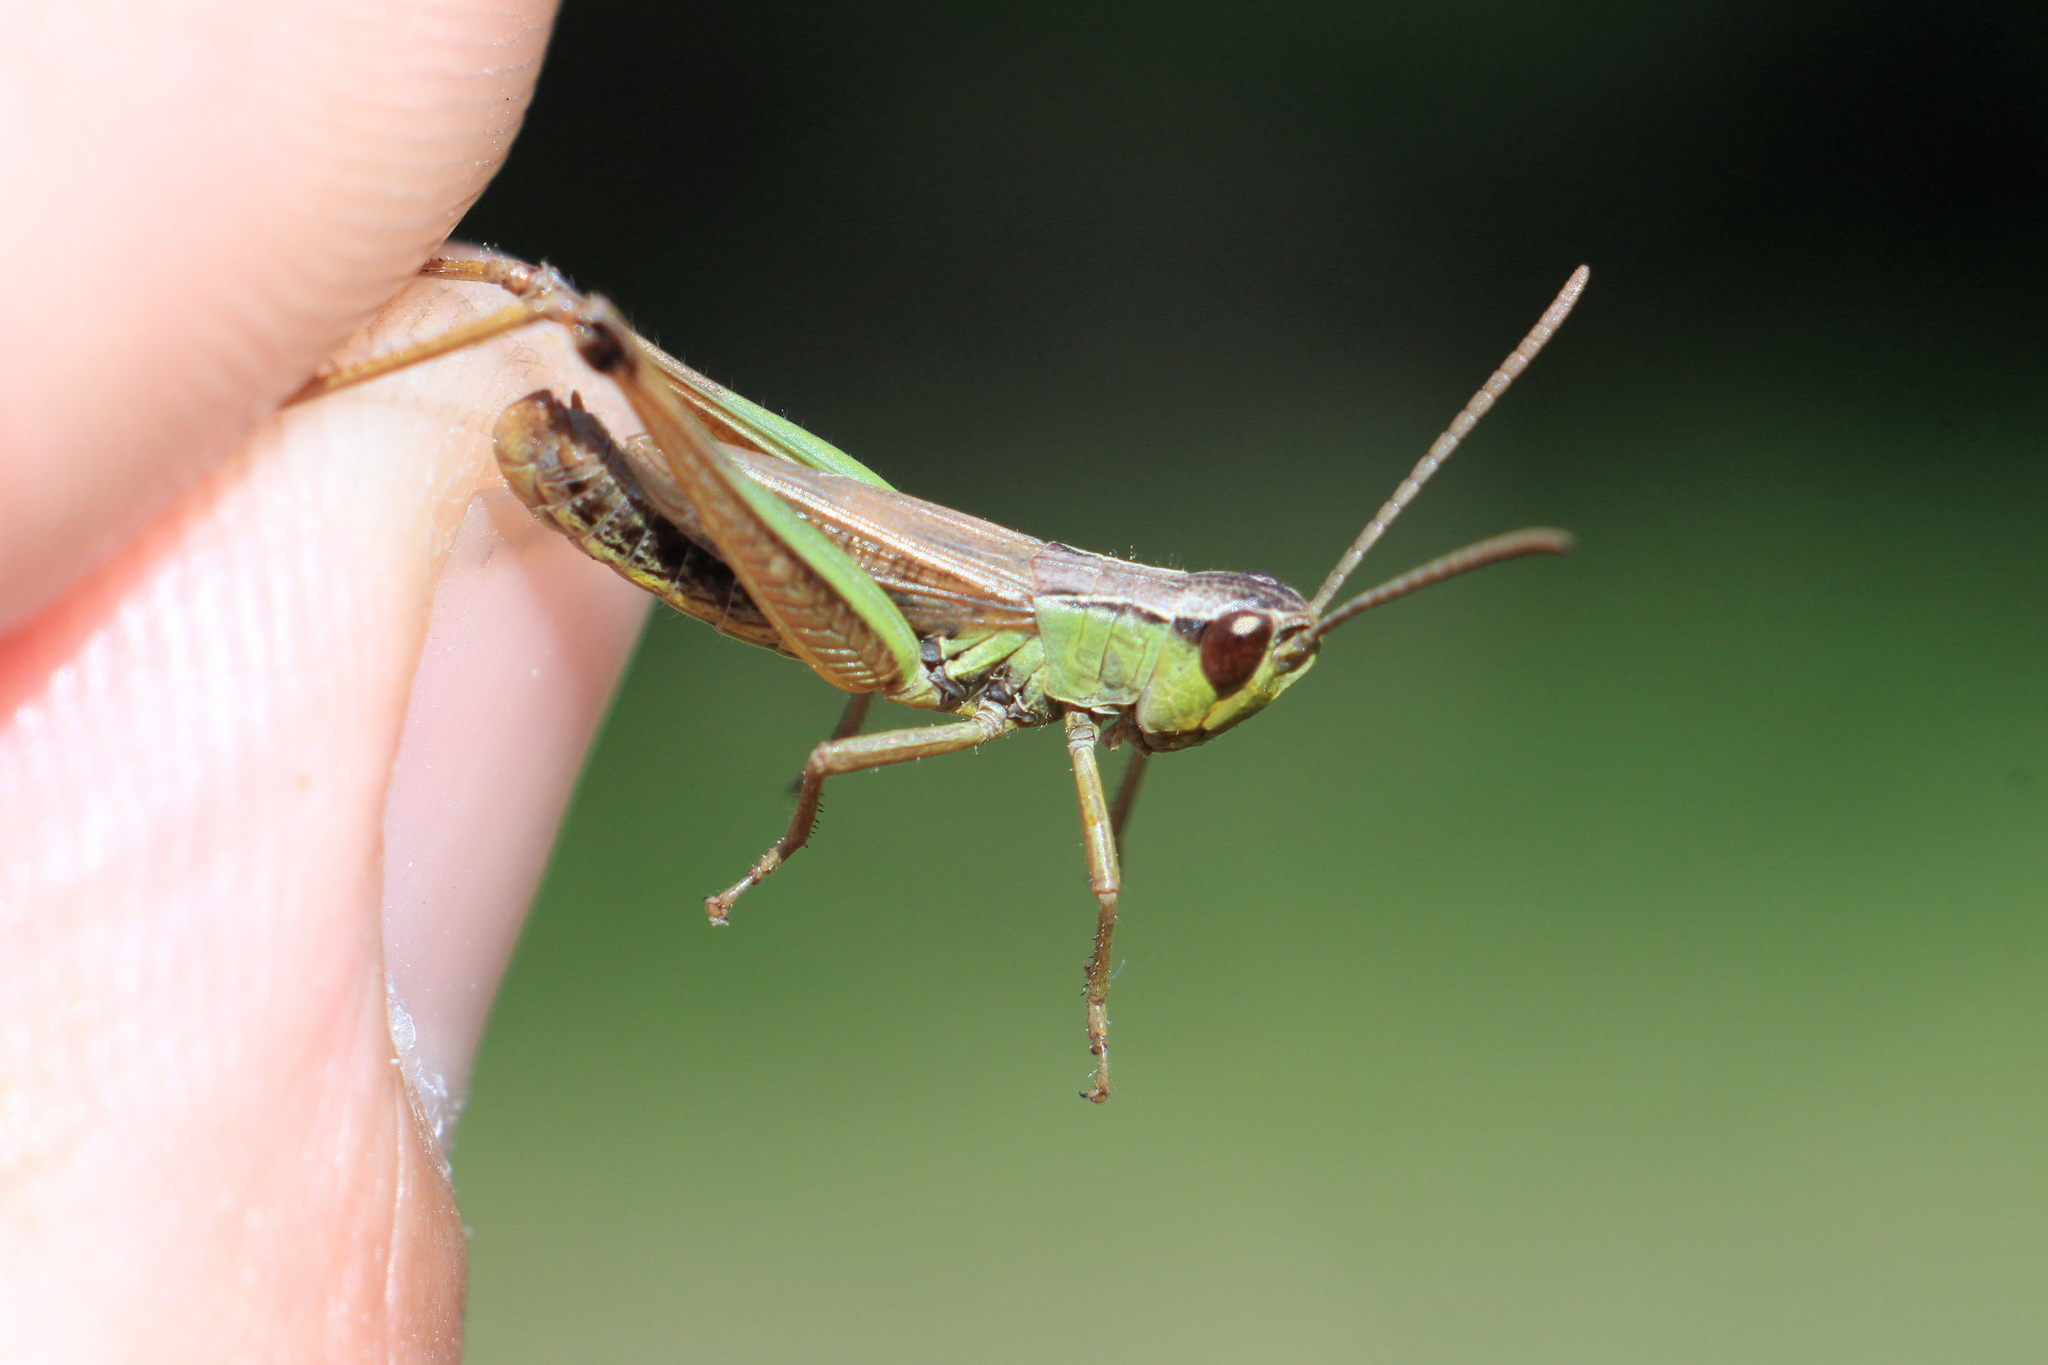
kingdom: Animalia
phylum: Arthropoda
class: Insecta
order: Orthoptera
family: Acrididae
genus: Pseudochorthippus
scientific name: Pseudochorthippus parallelus
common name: Meadow grasshopper
